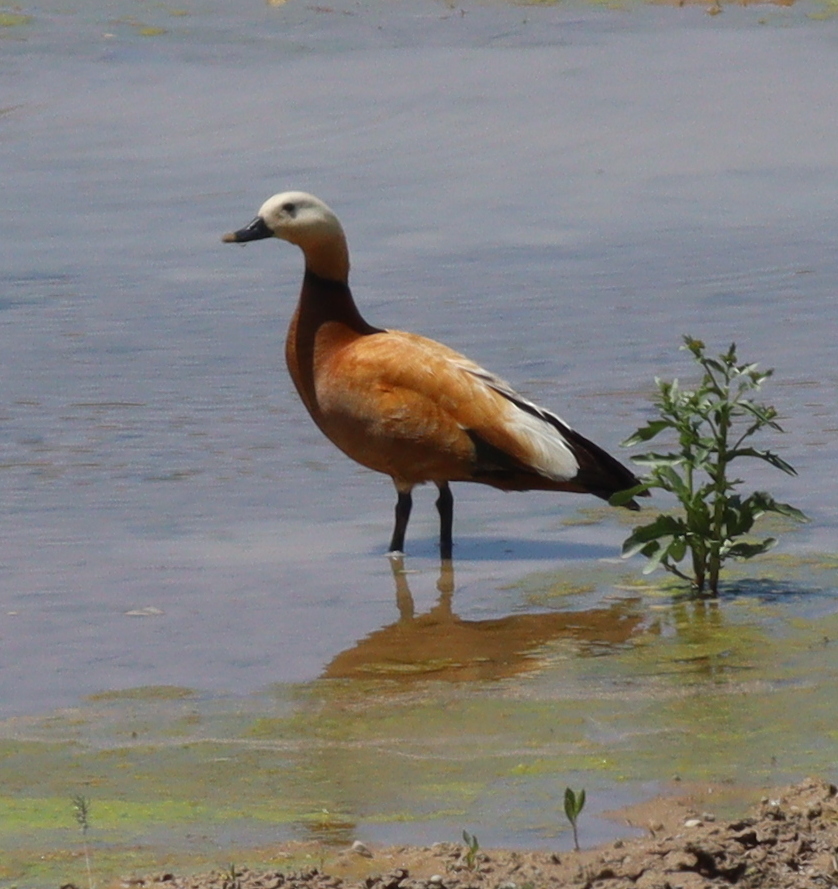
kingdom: Animalia
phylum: Chordata
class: Aves
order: Anseriformes
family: Anatidae
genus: Tadorna
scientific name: Tadorna ferruginea
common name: Ruddy shelduck
